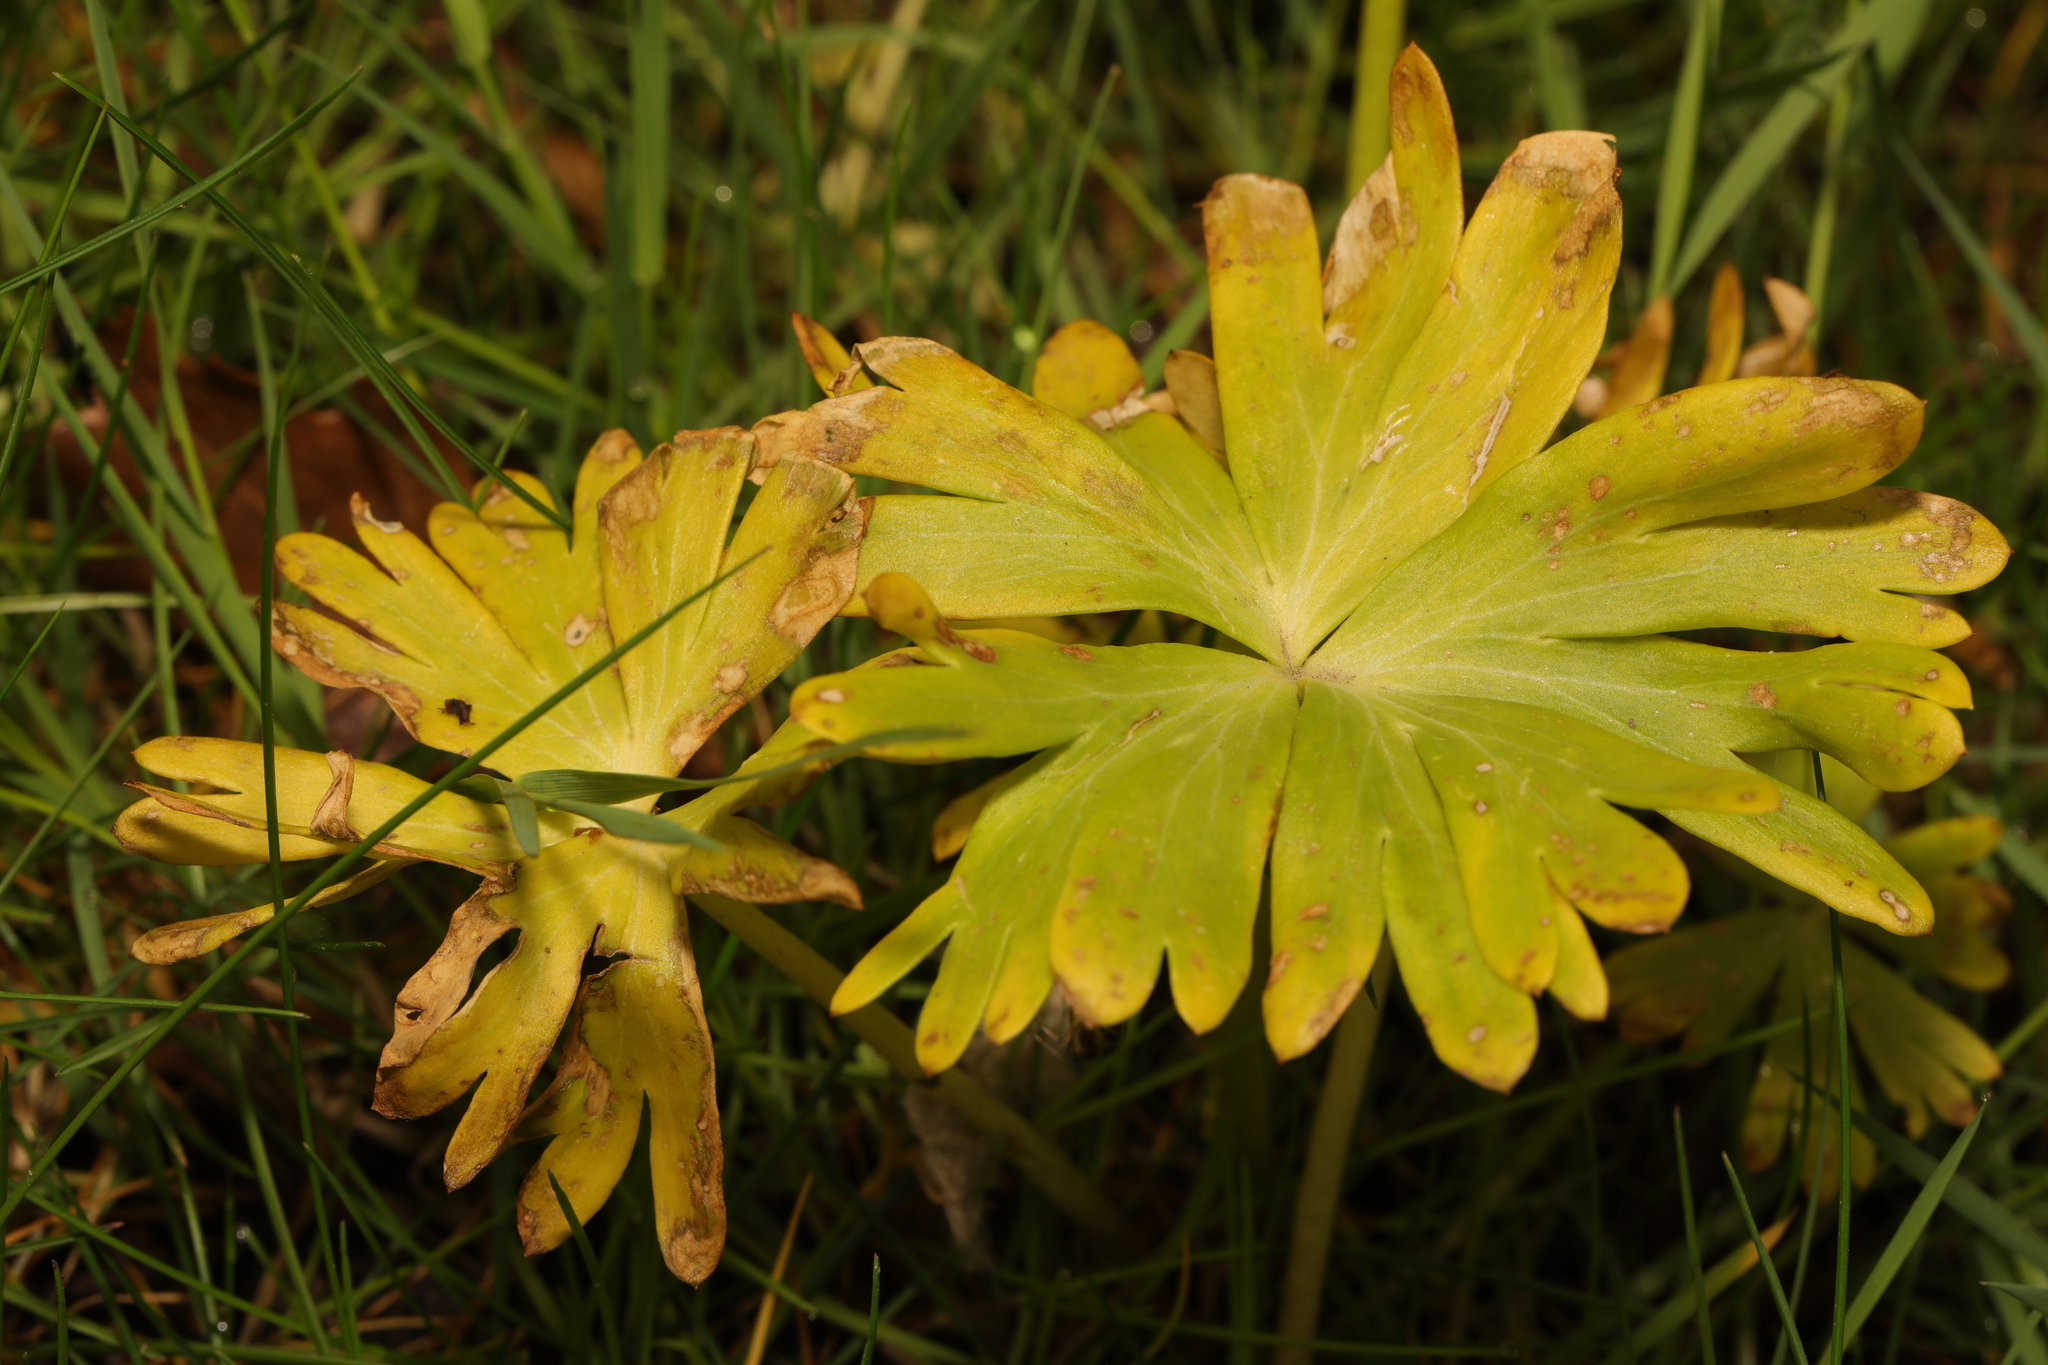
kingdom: Plantae
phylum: Tracheophyta
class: Magnoliopsida
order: Ranunculales
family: Ranunculaceae
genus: Eranthis
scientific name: Eranthis hyemalis
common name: Winter aconite
